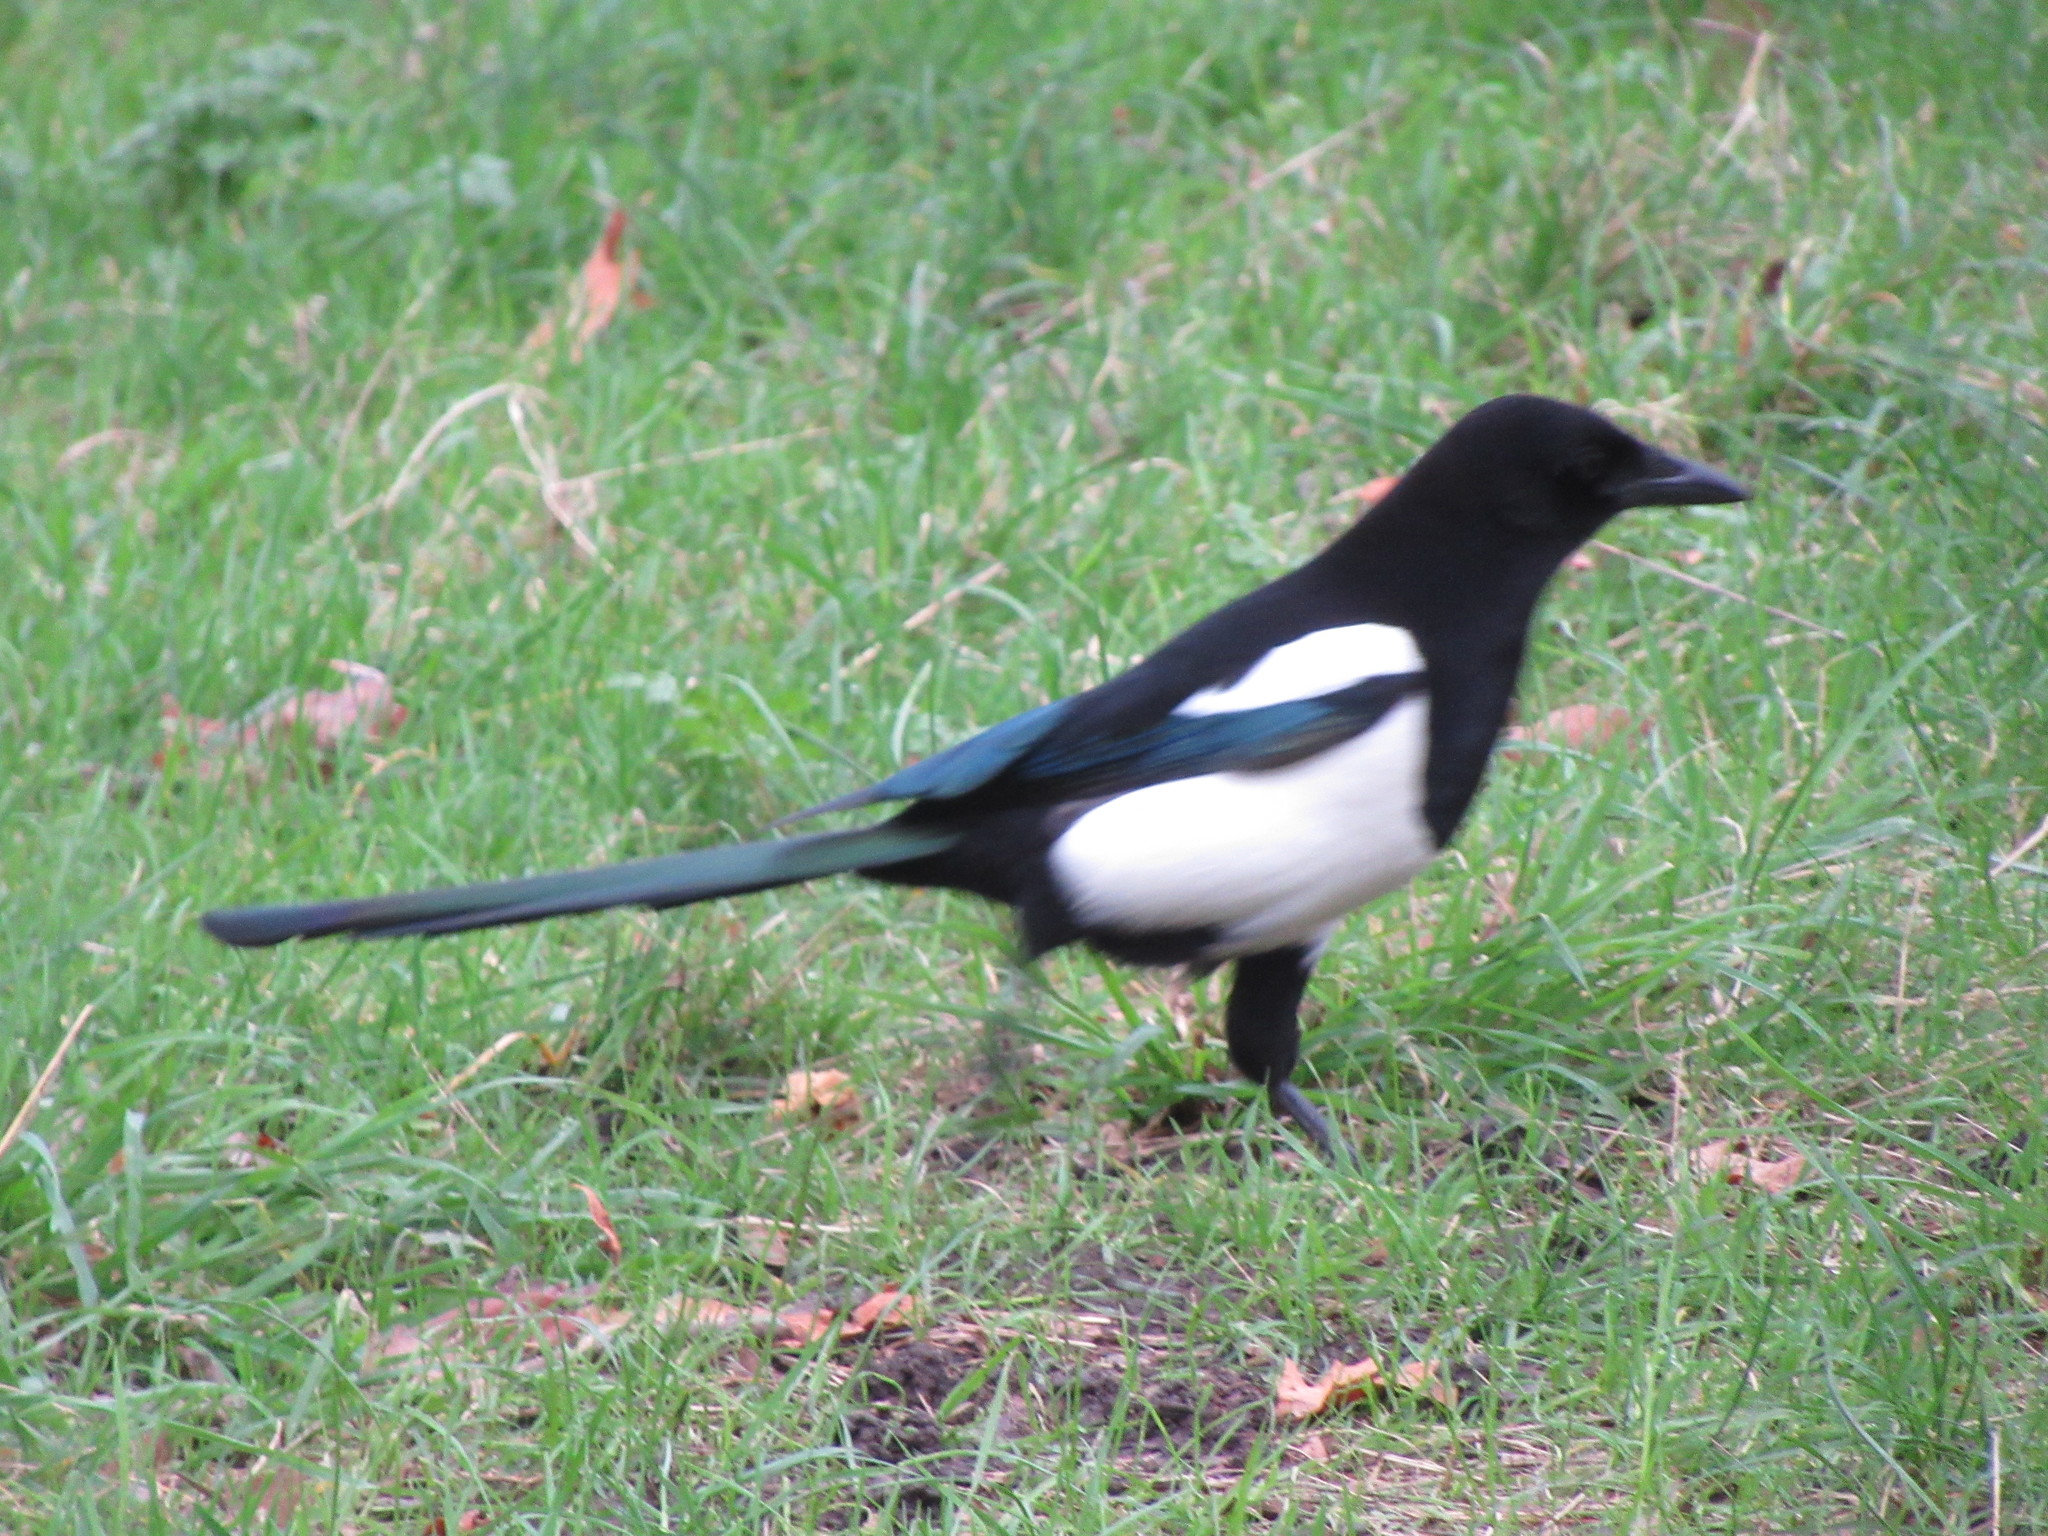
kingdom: Animalia
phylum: Chordata
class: Aves
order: Passeriformes
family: Corvidae
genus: Pica
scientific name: Pica pica
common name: Eurasian magpie
